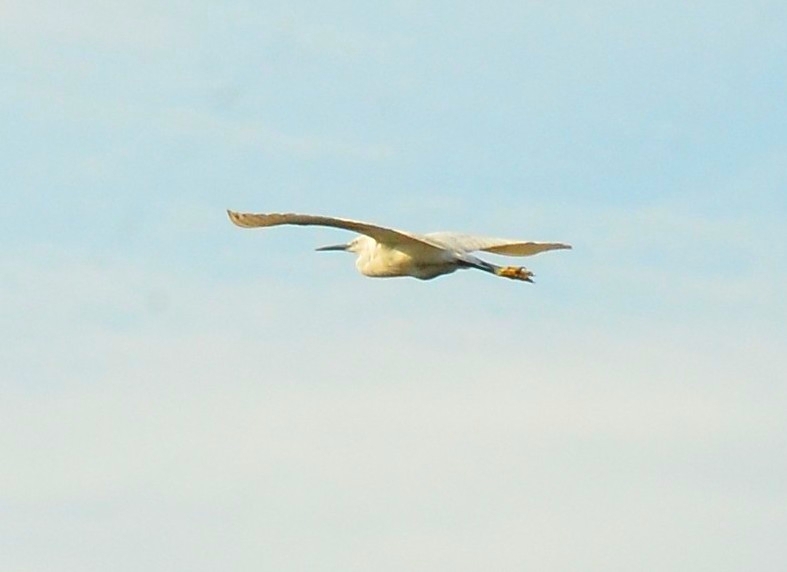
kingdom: Animalia
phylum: Chordata
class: Aves
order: Pelecaniformes
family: Ardeidae
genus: Egretta
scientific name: Egretta garzetta
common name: Little egret
